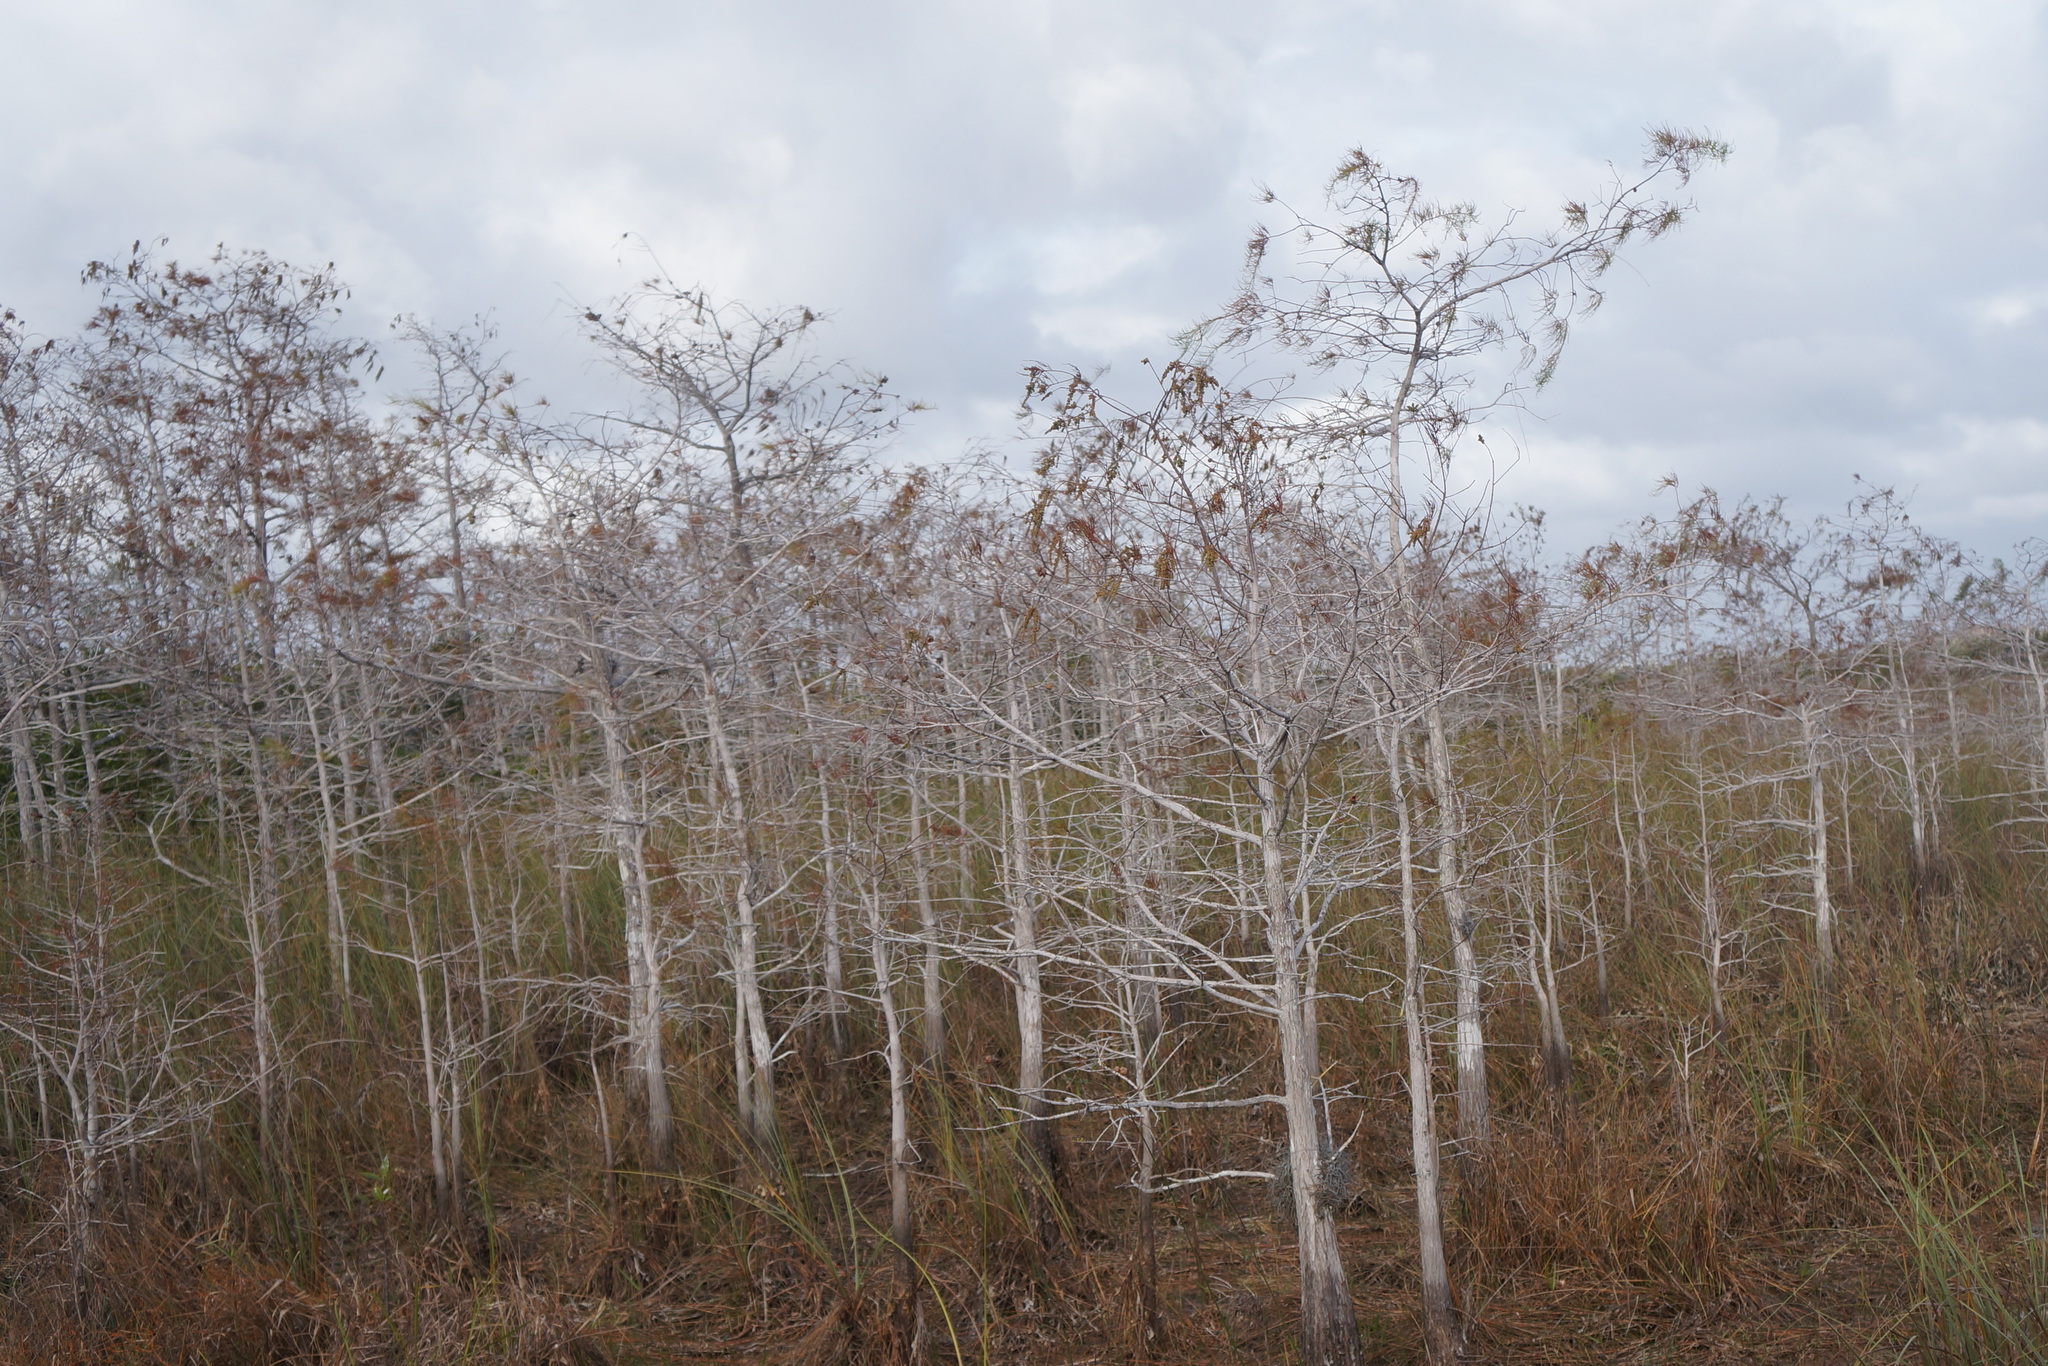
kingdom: Plantae
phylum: Tracheophyta
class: Pinopsida
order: Pinales
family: Cupressaceae
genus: Taxodium
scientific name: Taxodium distichum
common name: Bald cypress
